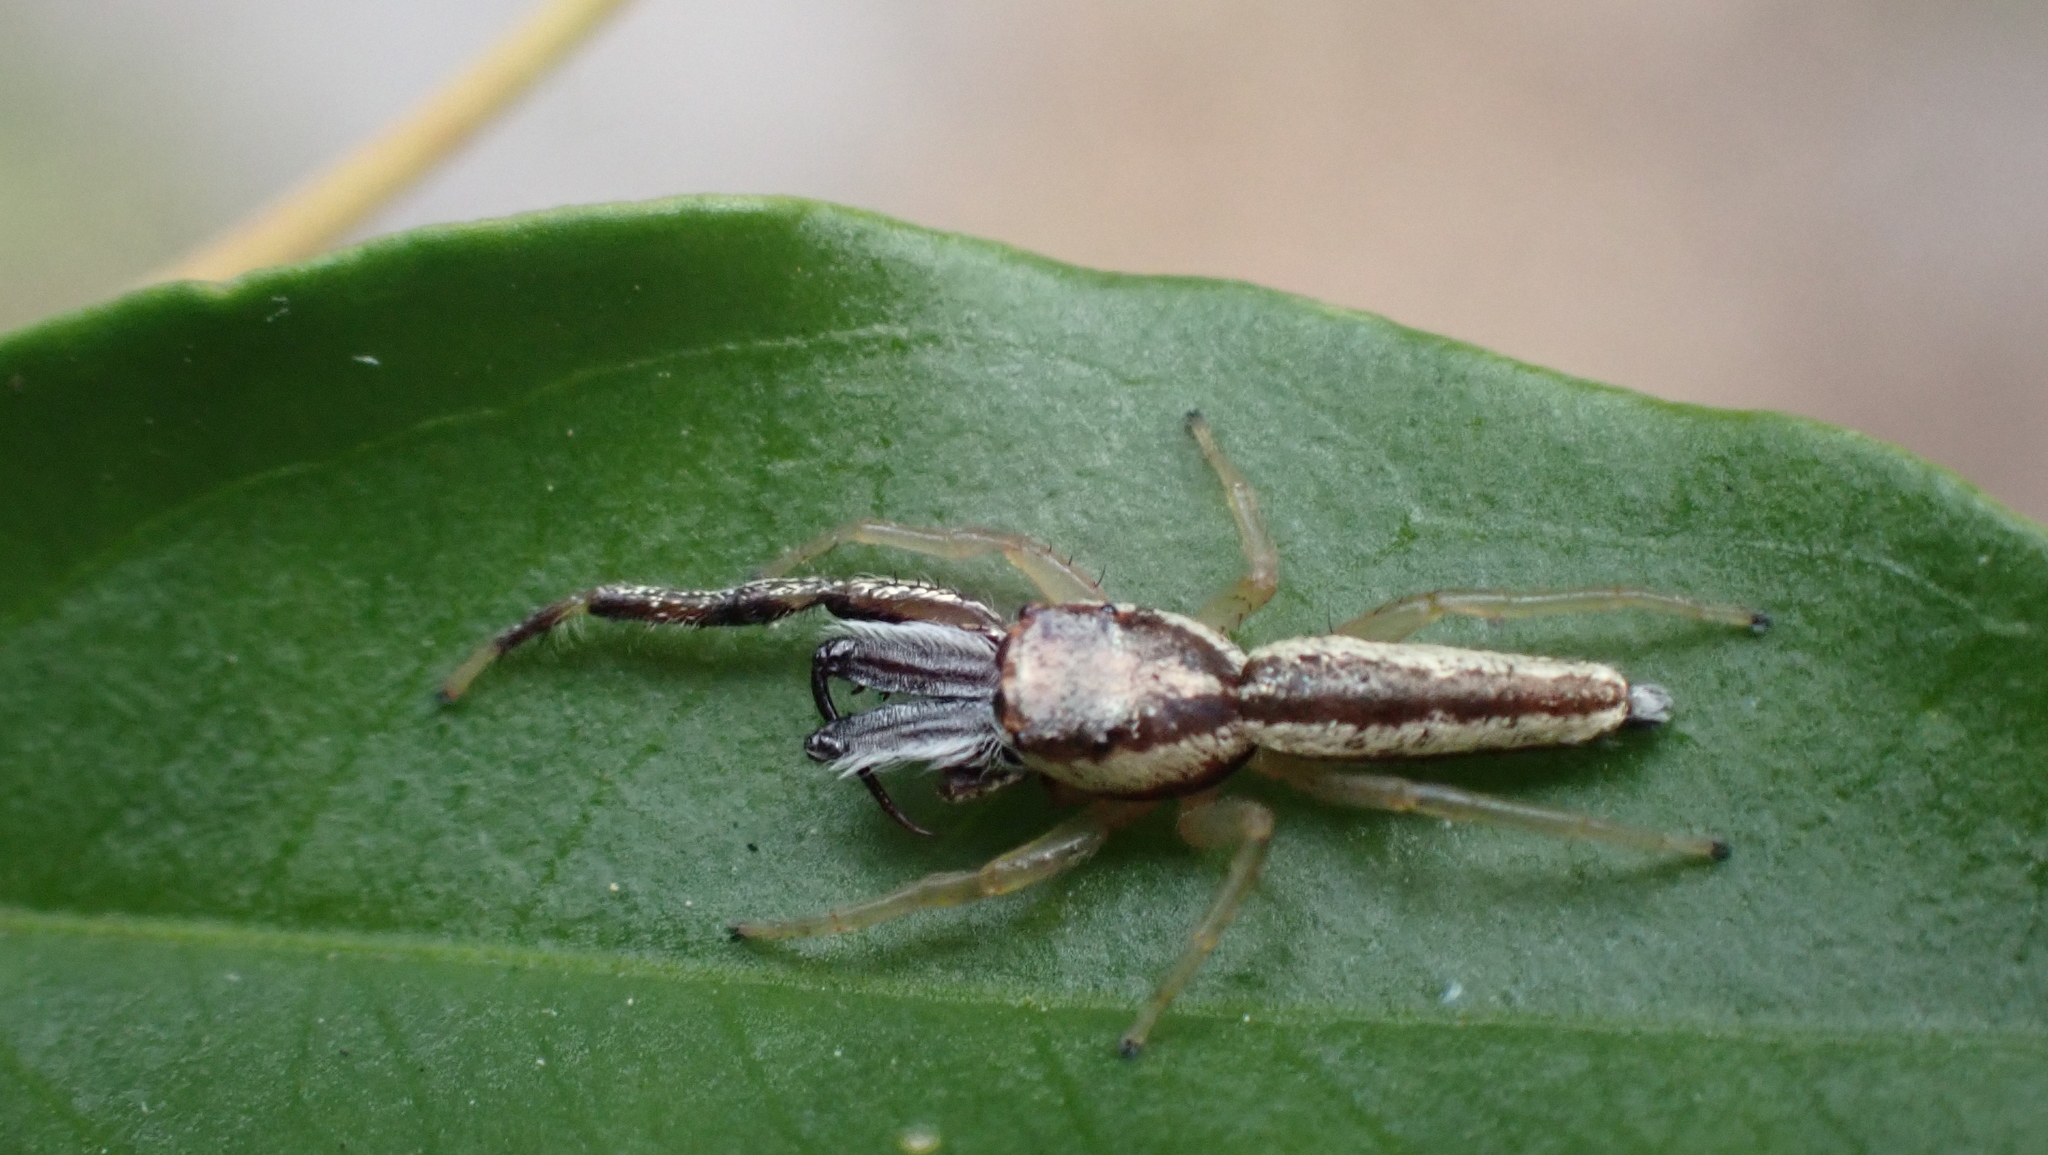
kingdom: Animalia
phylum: Arthropoda
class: Arachnida
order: Araneae
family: Salticidae
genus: Hentzia
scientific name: Hentzia grenada
